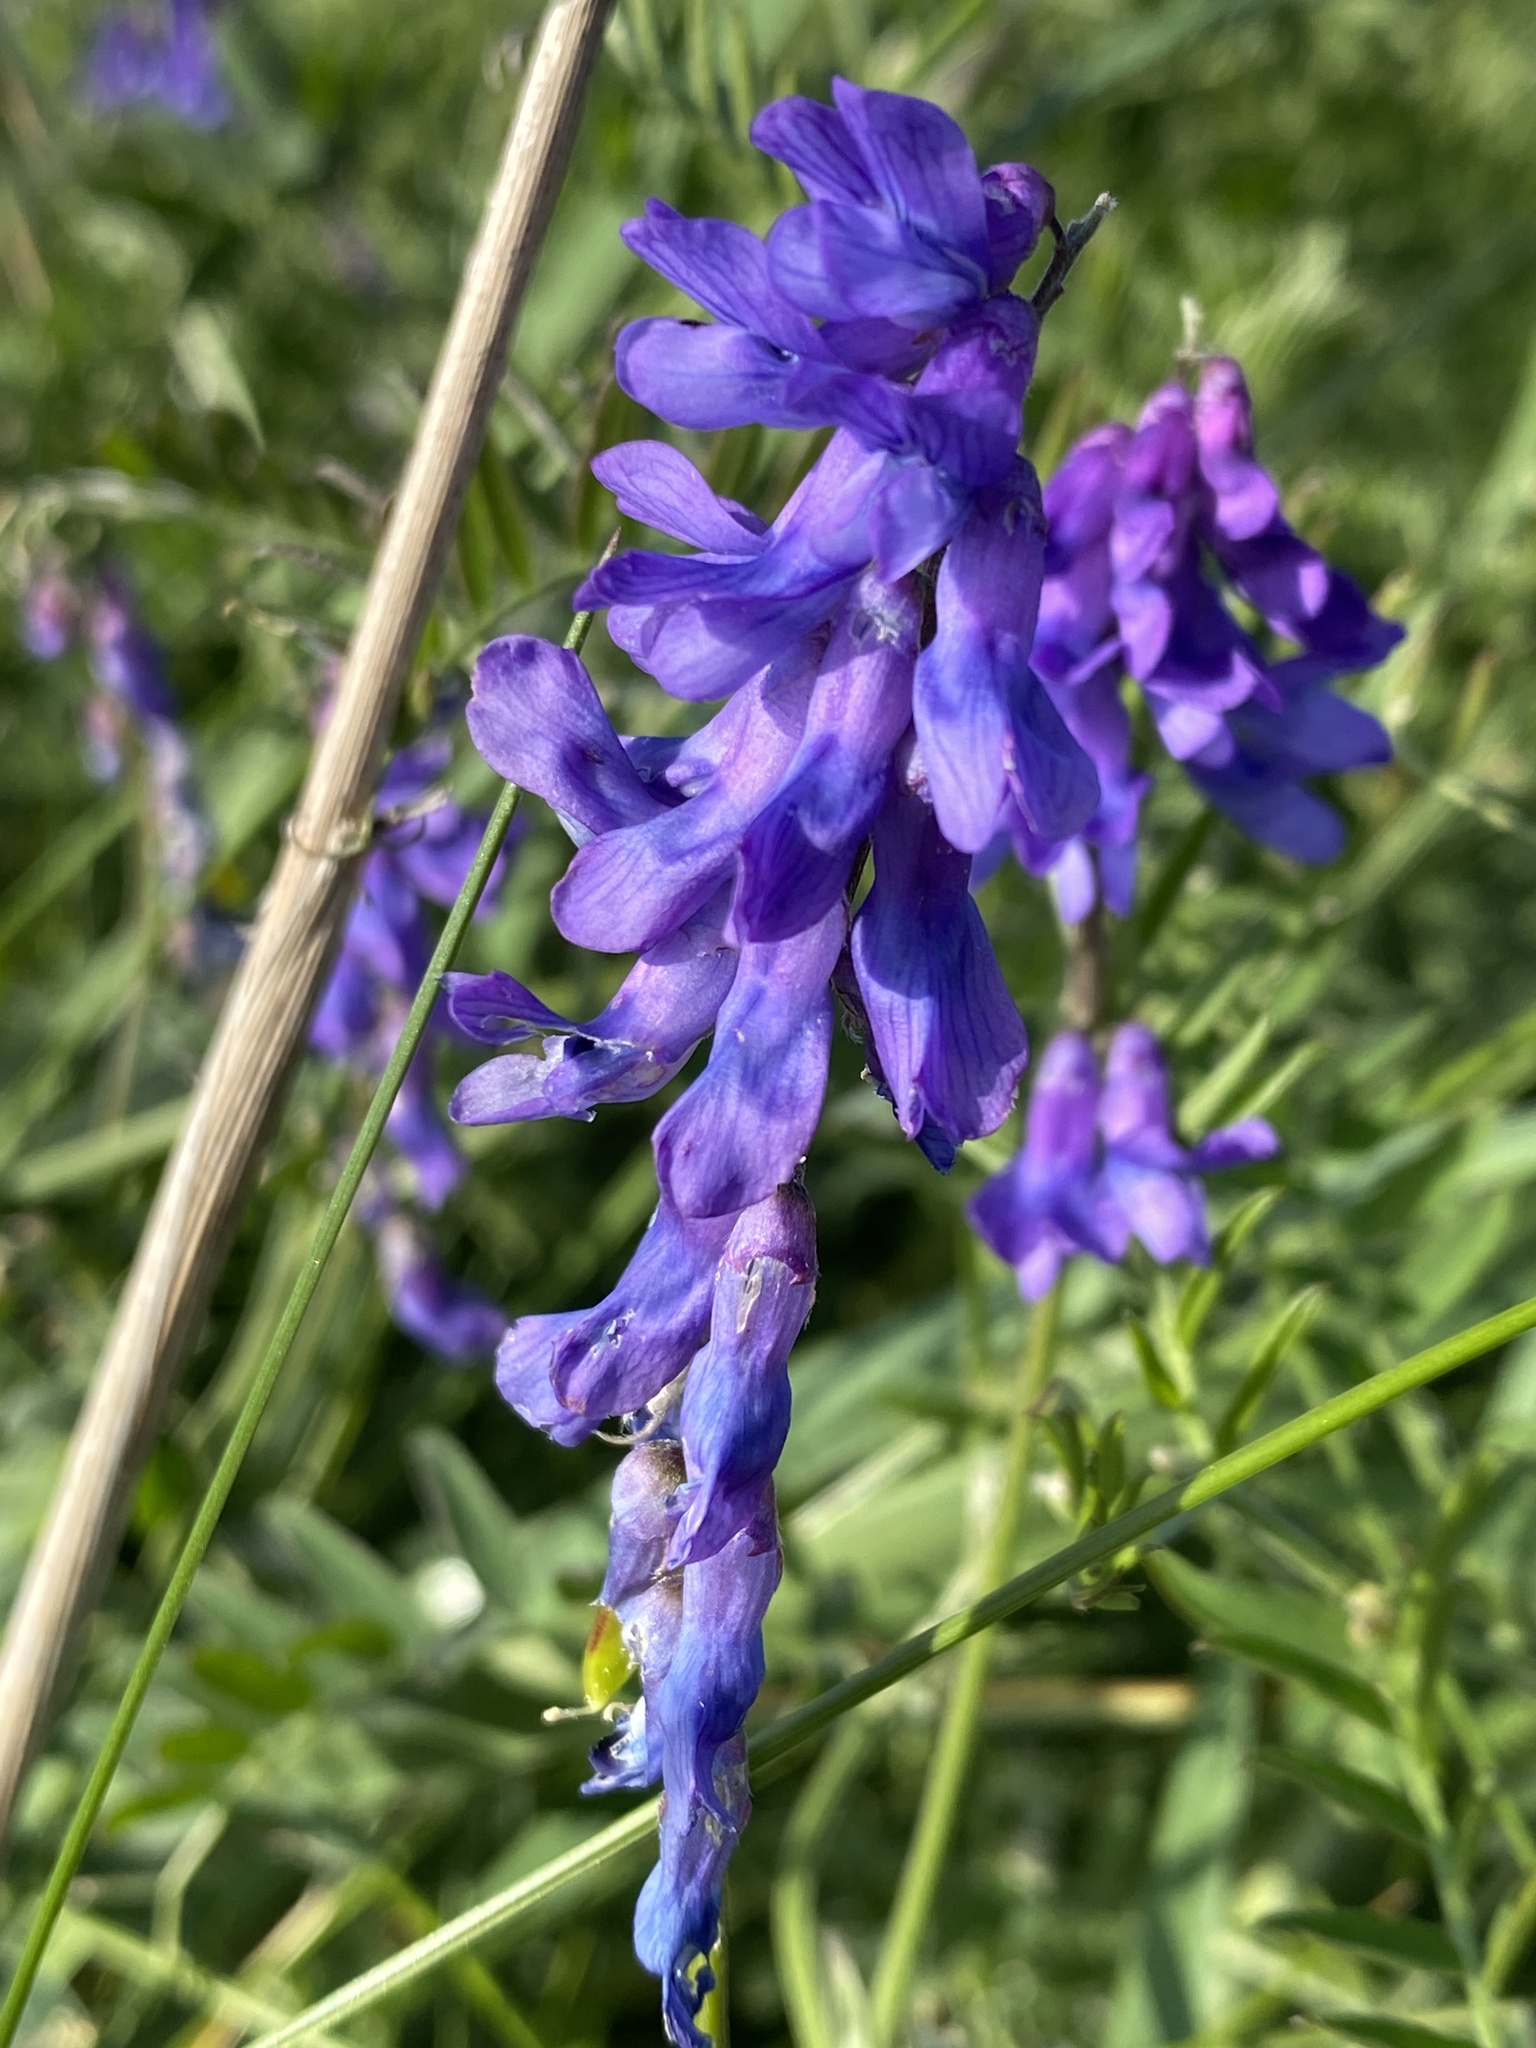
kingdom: Plantae
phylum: Tracheophyta
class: Magnoliopsida
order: Fabales
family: Fabaceae
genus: Vicia
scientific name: Vicia cracca
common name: Bird vetch
